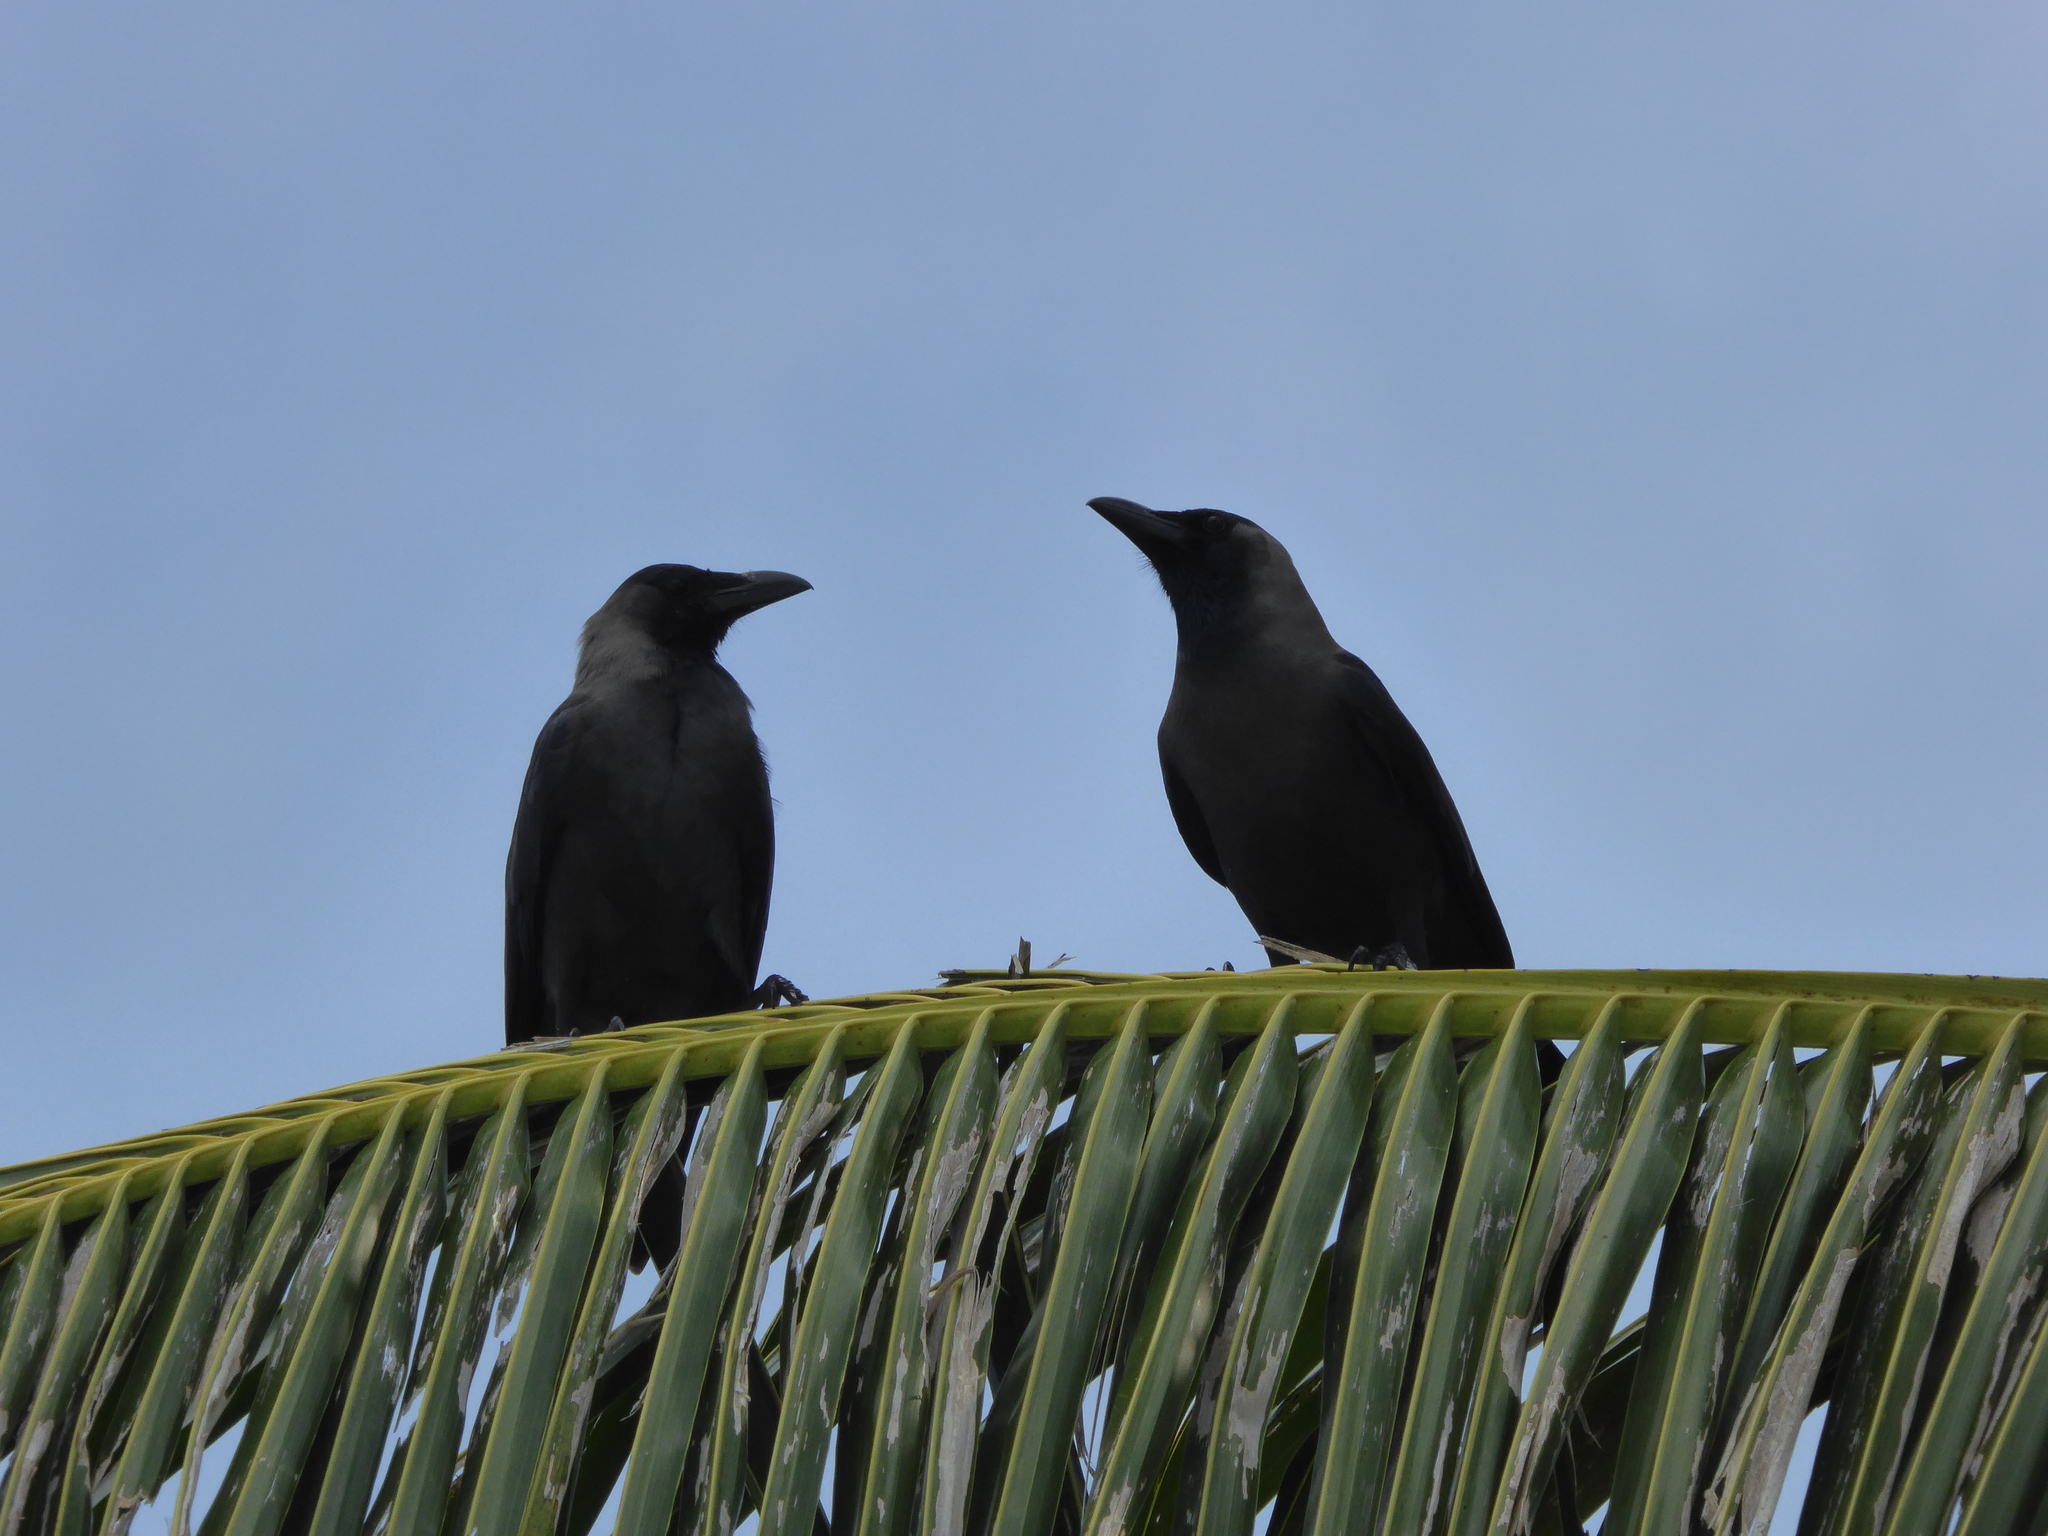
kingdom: Animalia
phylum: Chordata
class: Aves
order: Passeriformes
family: Corvidae
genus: Corvus
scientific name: Corvus splendens
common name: House crow
